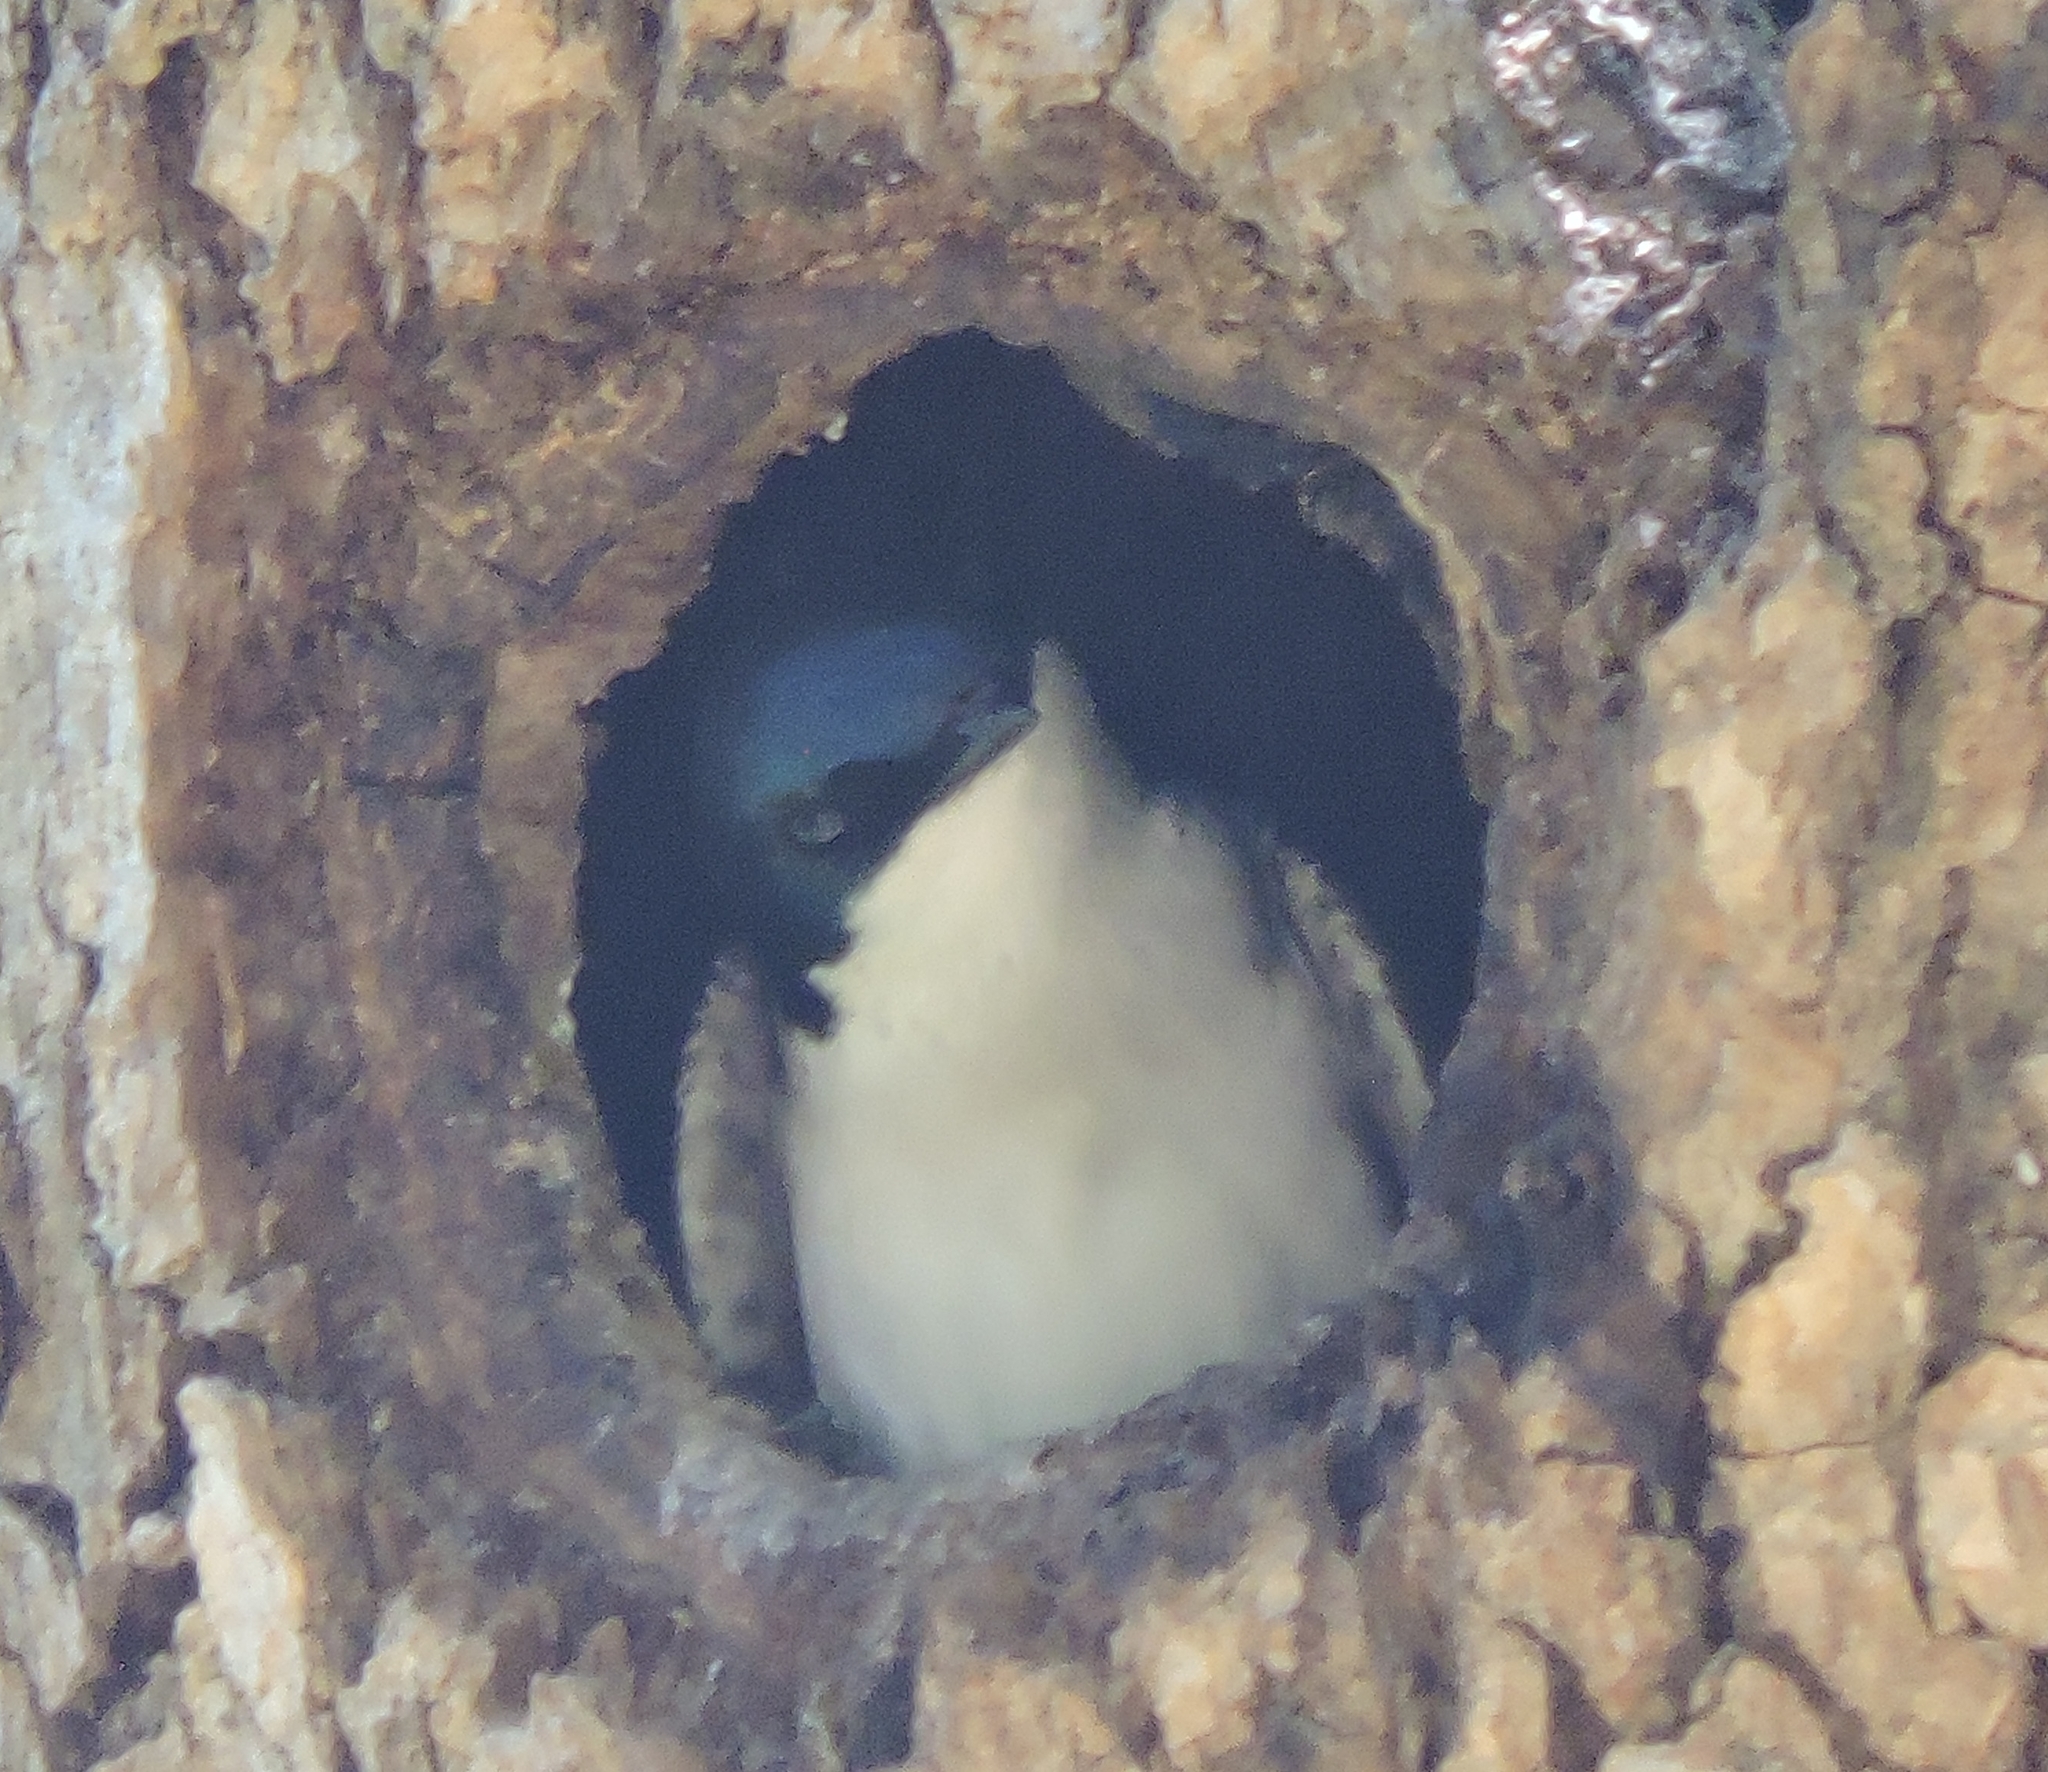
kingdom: Animalia
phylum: Chordata
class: Aves
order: Passeriformes
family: Hirundinidae
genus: Tachycineta
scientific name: Tachycineta bicolor
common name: Tree swallow
